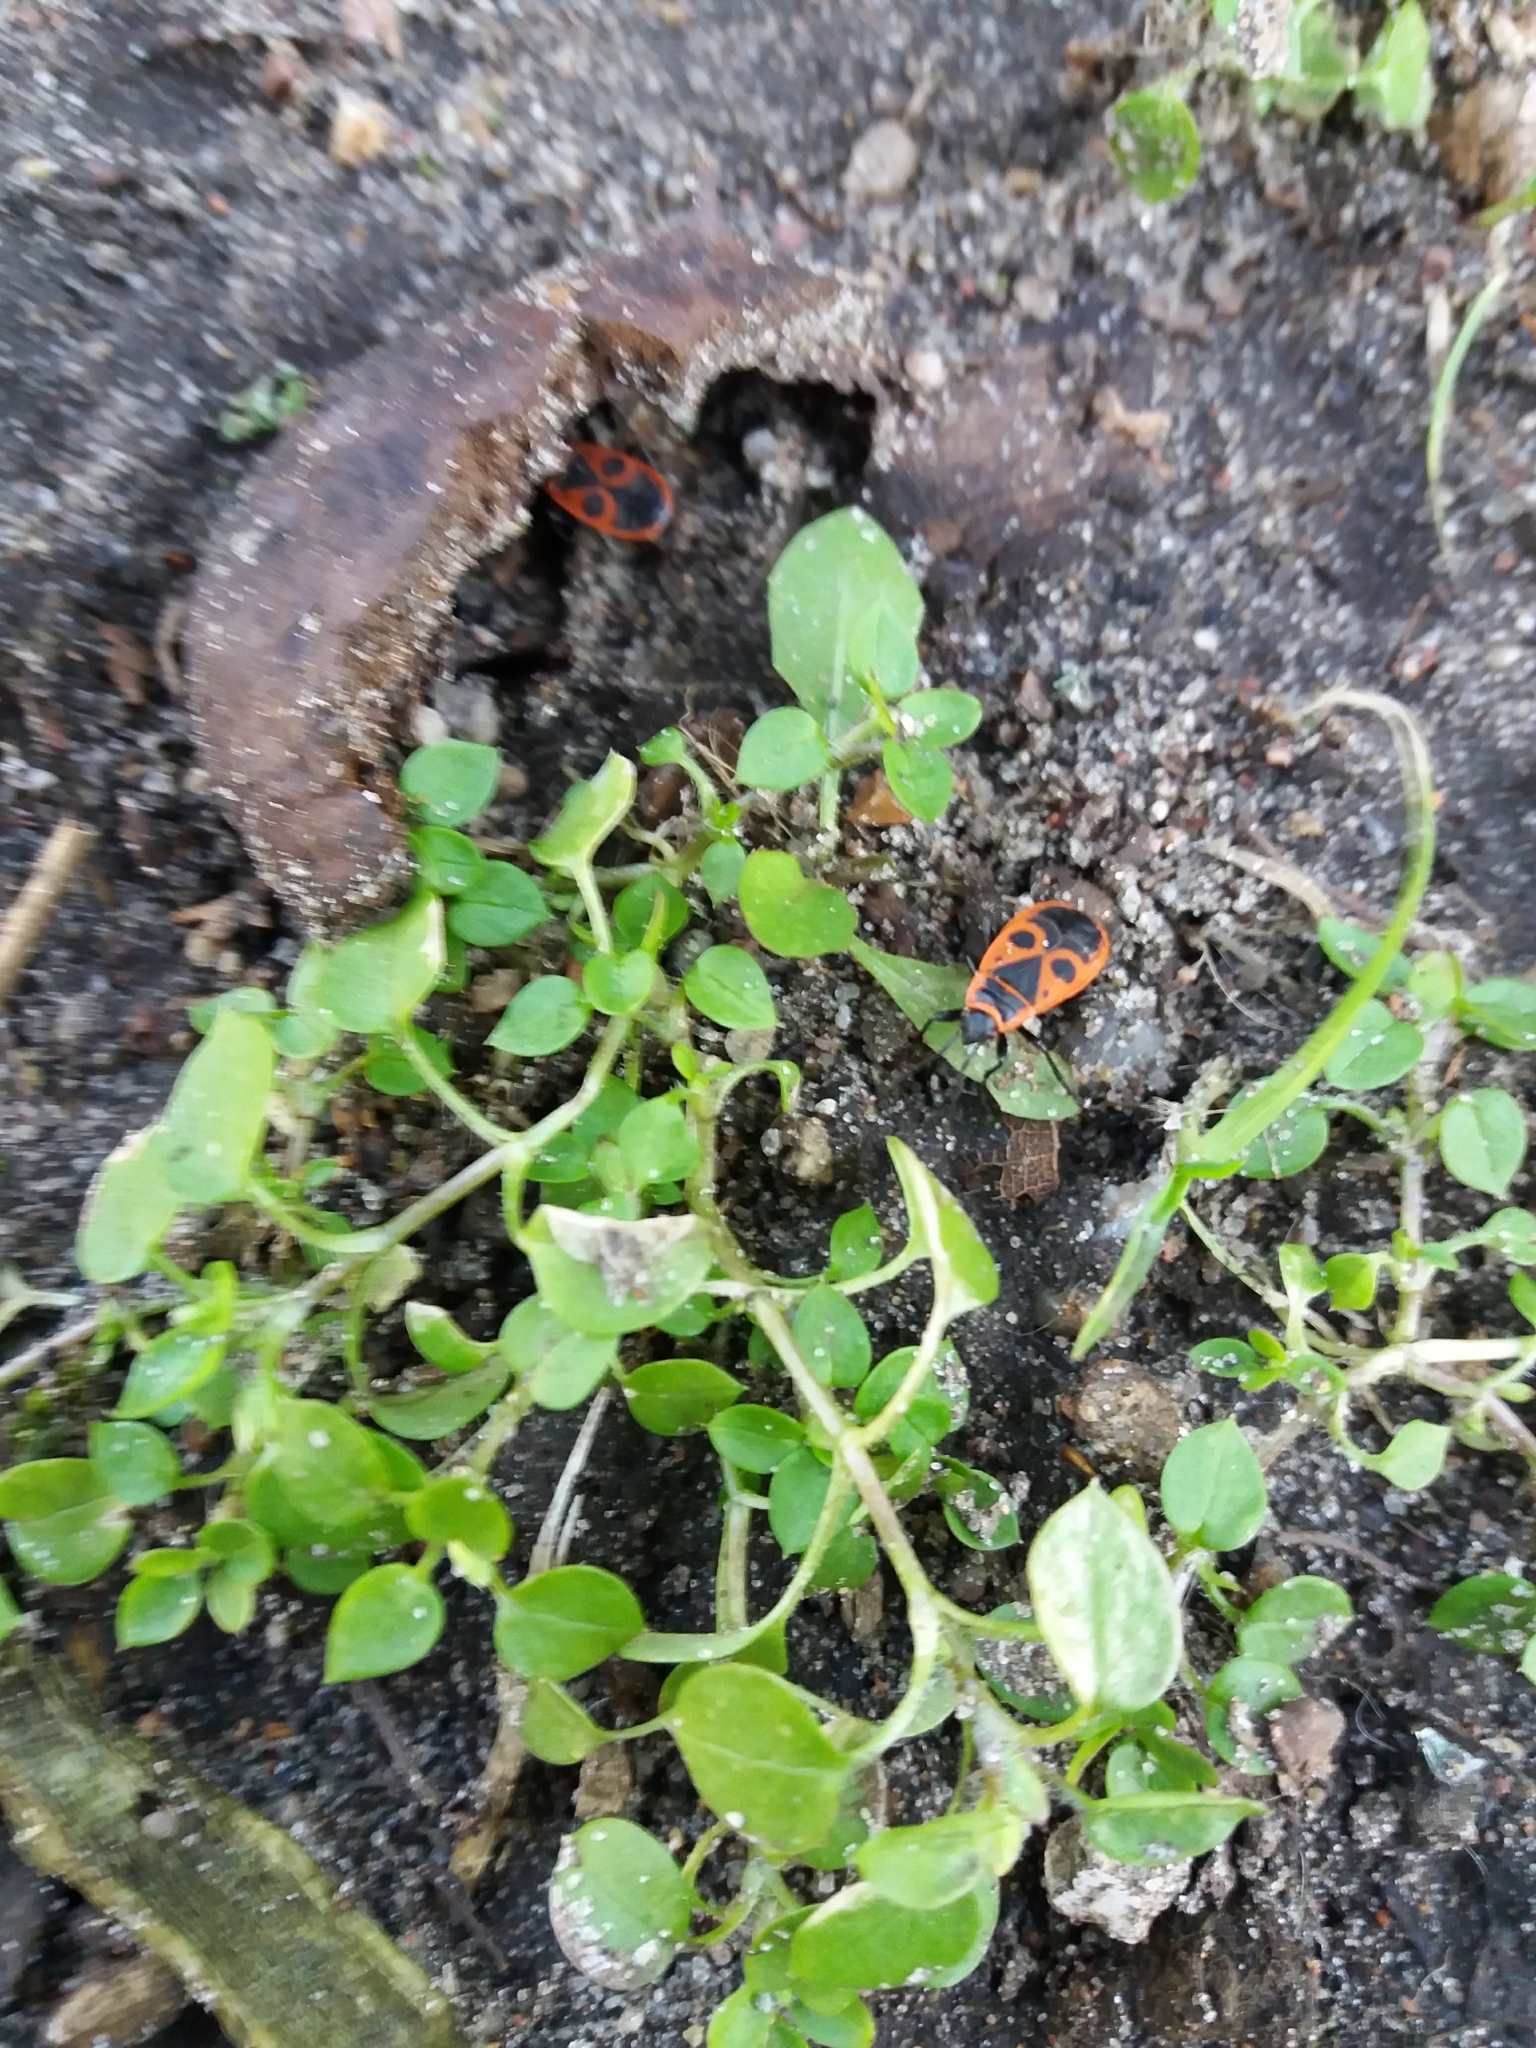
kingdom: Animalia
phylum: Arthropoda
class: Insecta
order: Hemiptera
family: Pyrrhocoridae
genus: Pyrrhocoris
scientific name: Pyrrhocoris apterus
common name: Firebug
